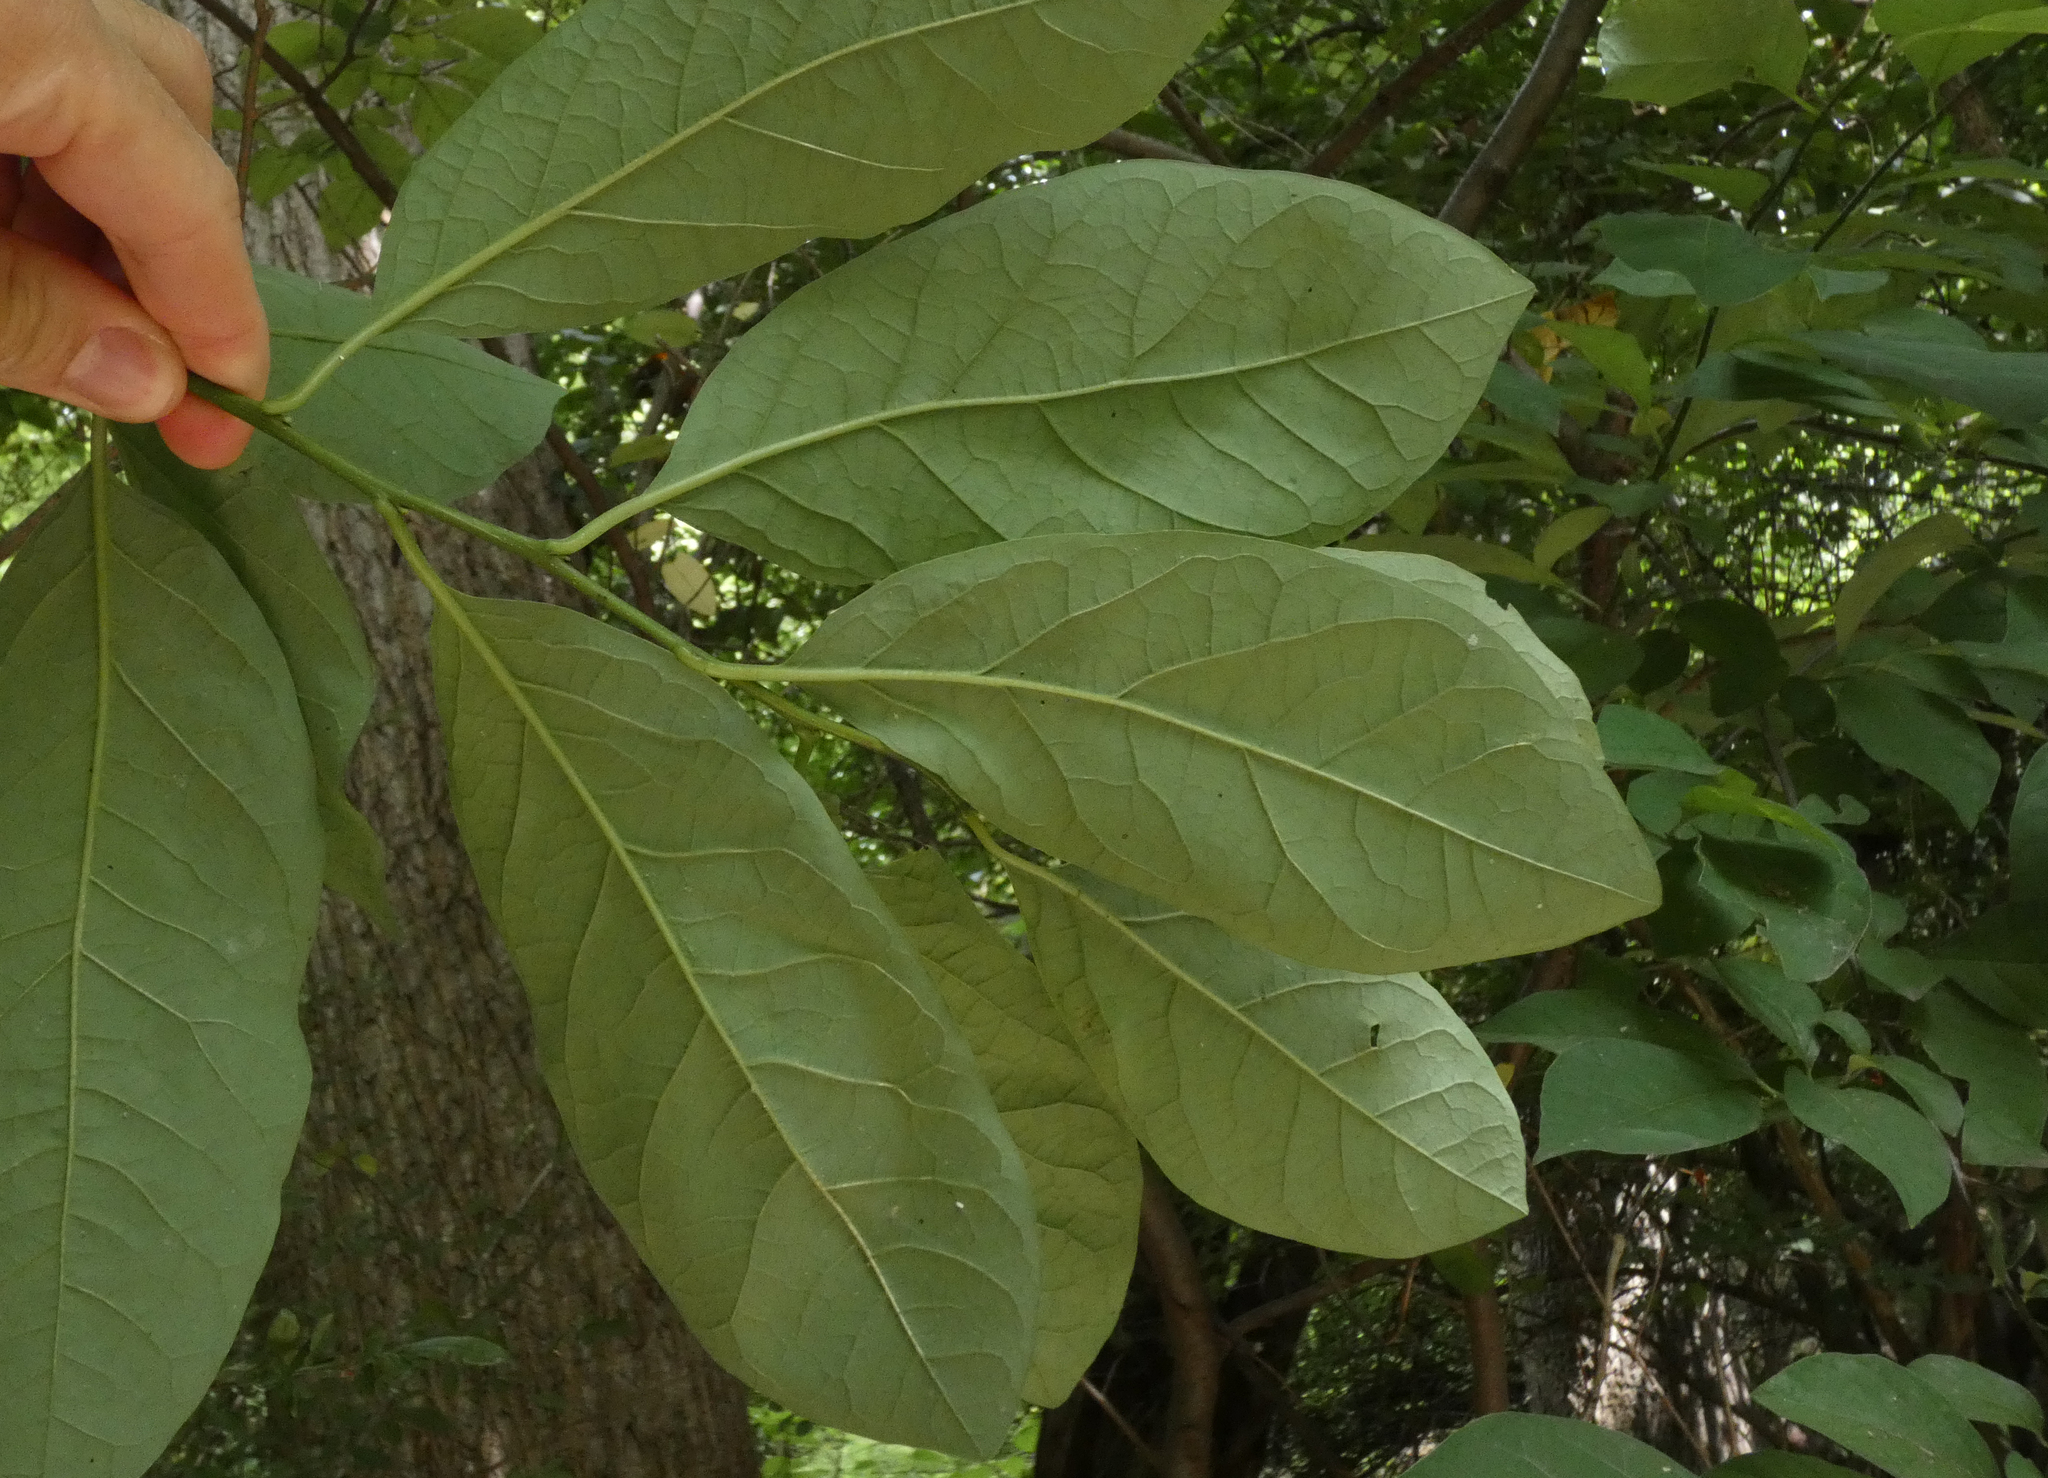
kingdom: Plantae
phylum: Tracheophyta
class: Magnoliopsida
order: Laurales
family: Lauraceae
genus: Lindera
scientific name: Lindera benzoin
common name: Spicebush
